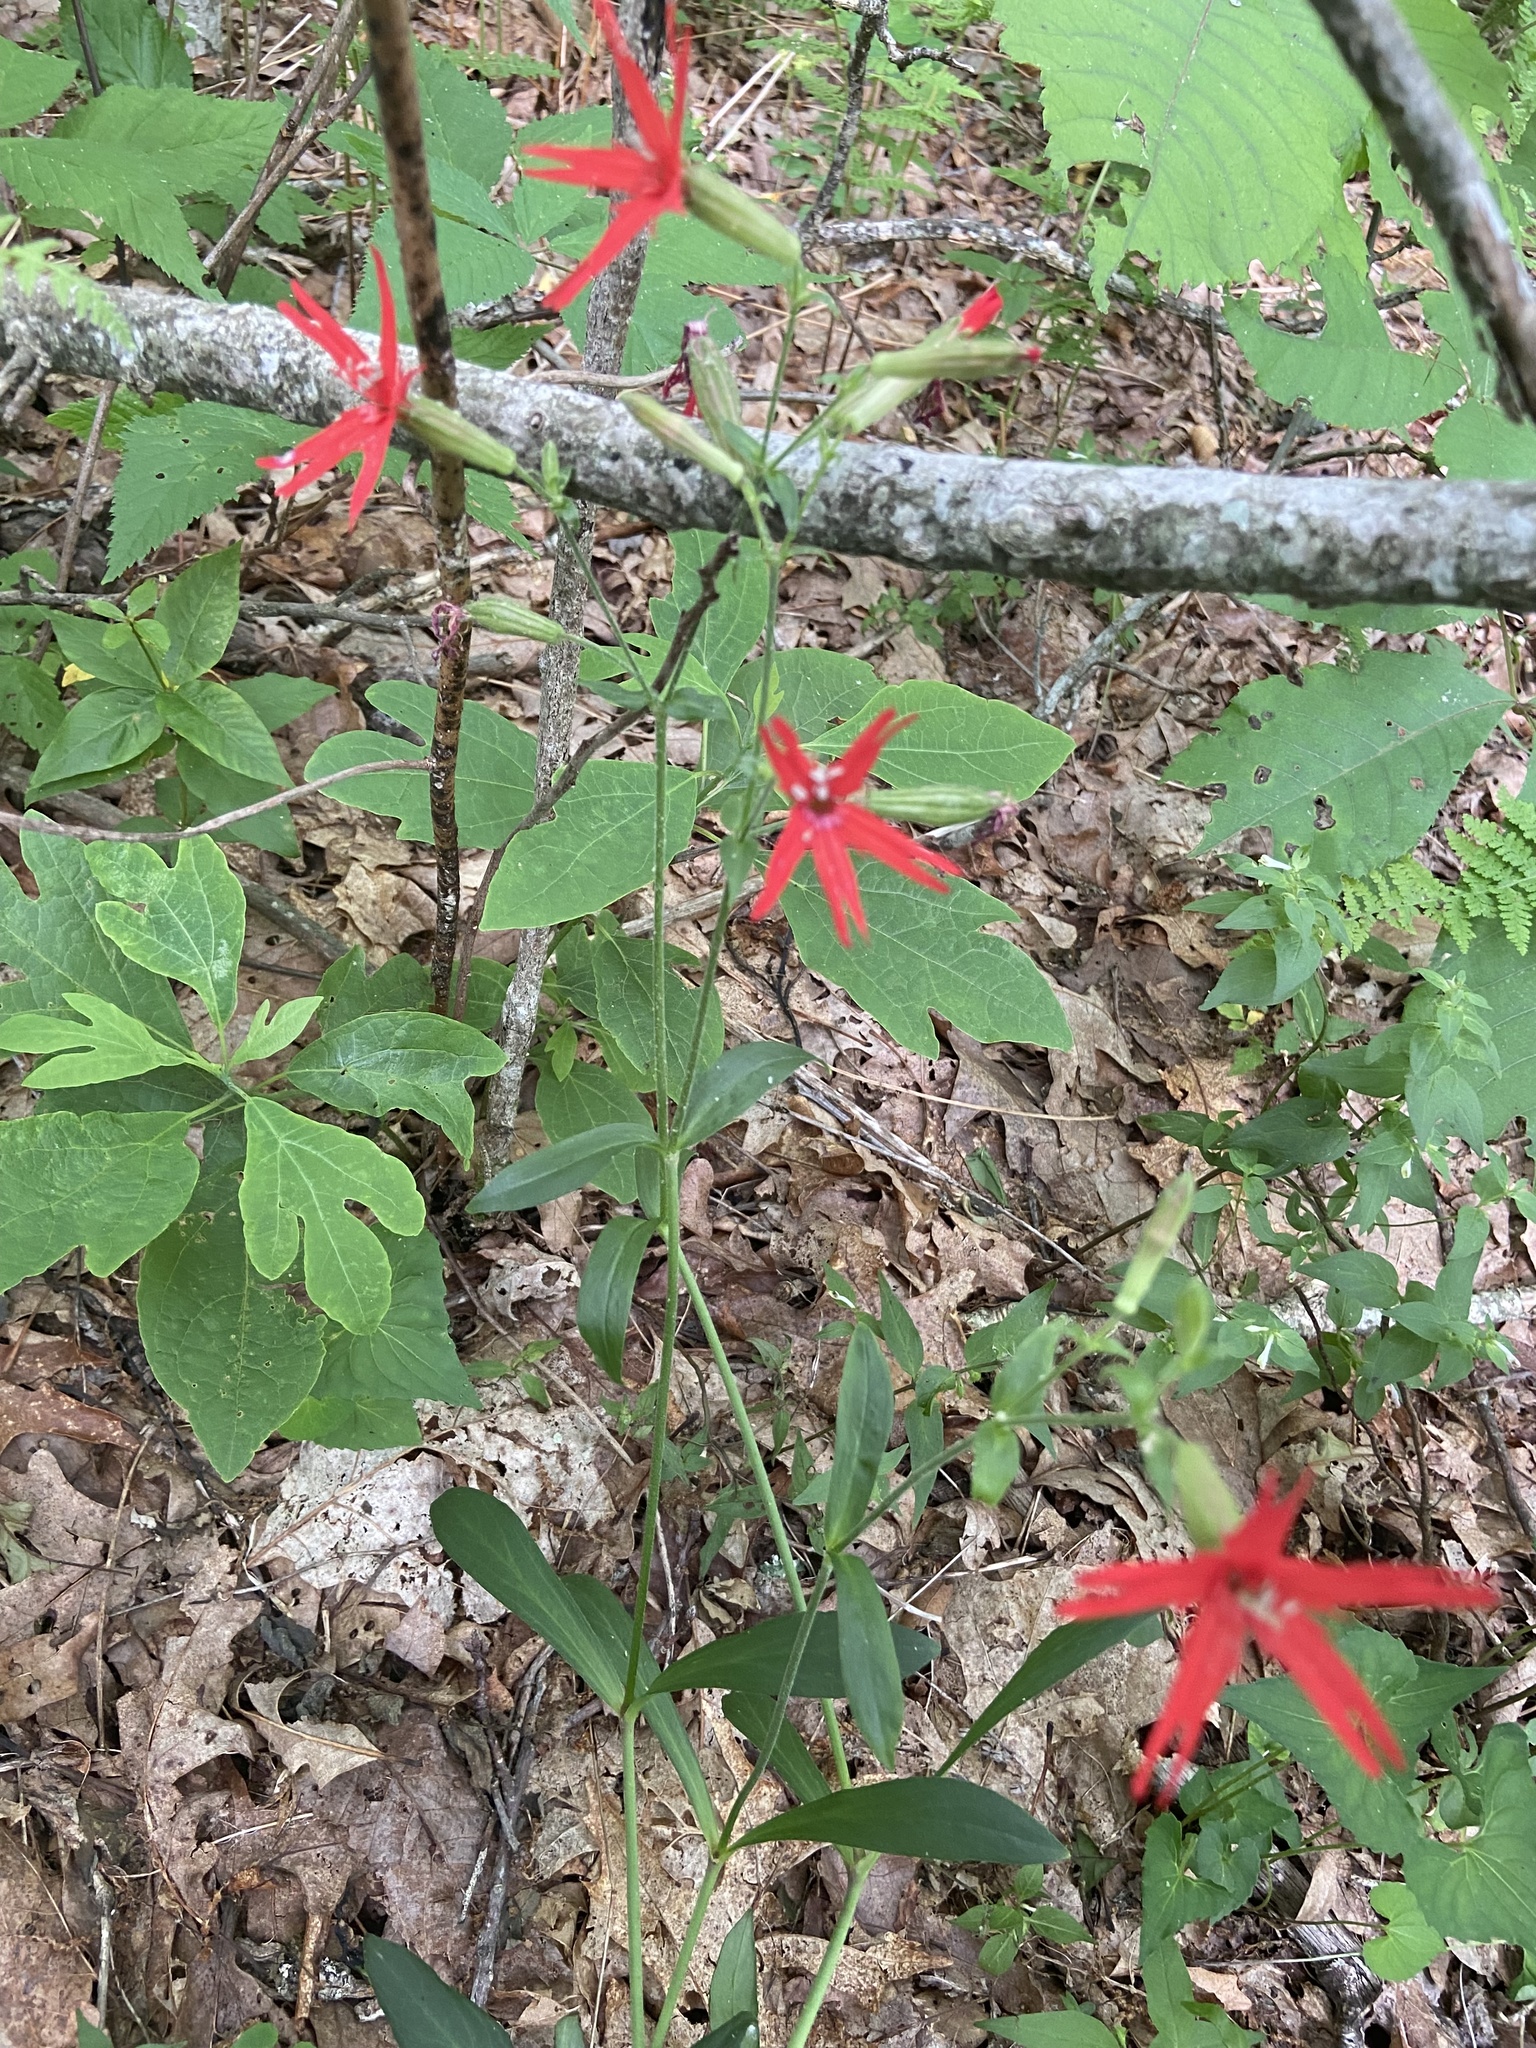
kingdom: Plantae
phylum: Tracheophyta
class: Magnoliopsida
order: Caryophyllales
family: Caryophyllaceae
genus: Silene
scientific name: Silene virginica
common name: Fire-pink
